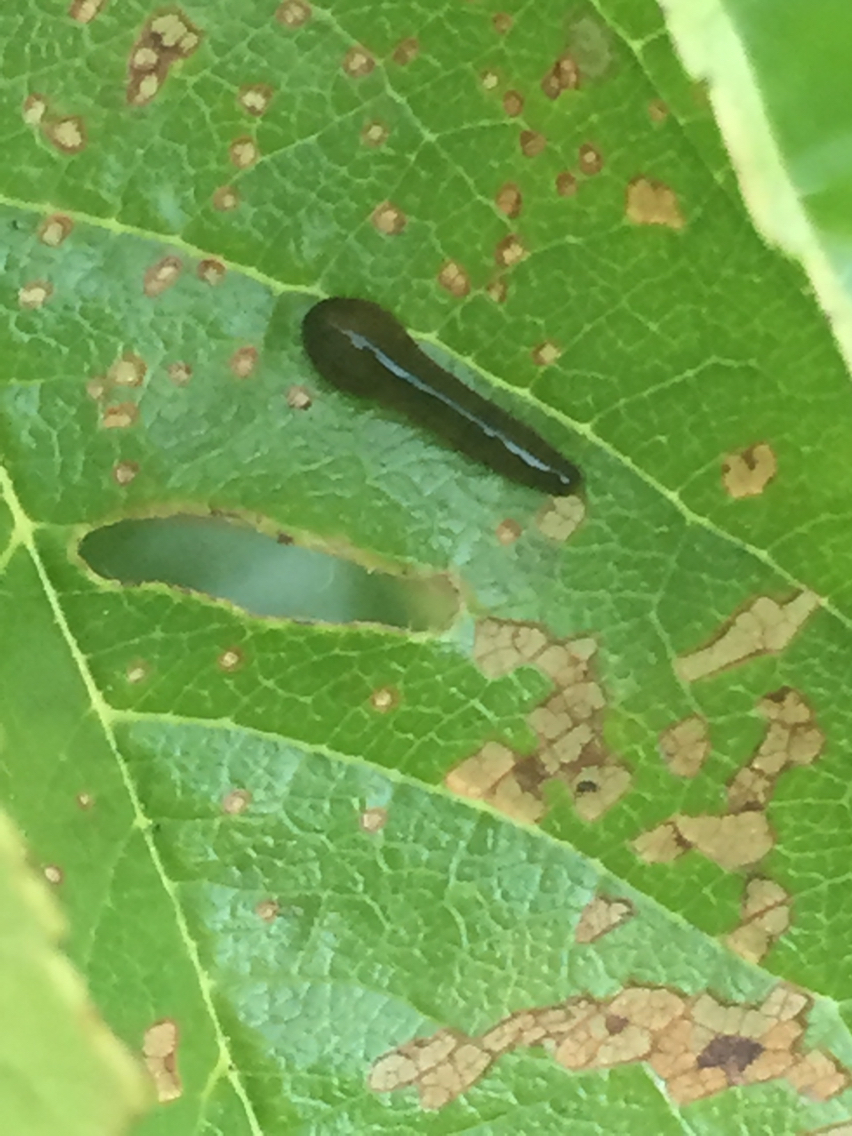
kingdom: Animalia
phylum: Arthropoda
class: Insecta
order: Hymenoptera
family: Tenthredinidae
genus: Caliroa
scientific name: Caliroa cerasi
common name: Pear sawfly
